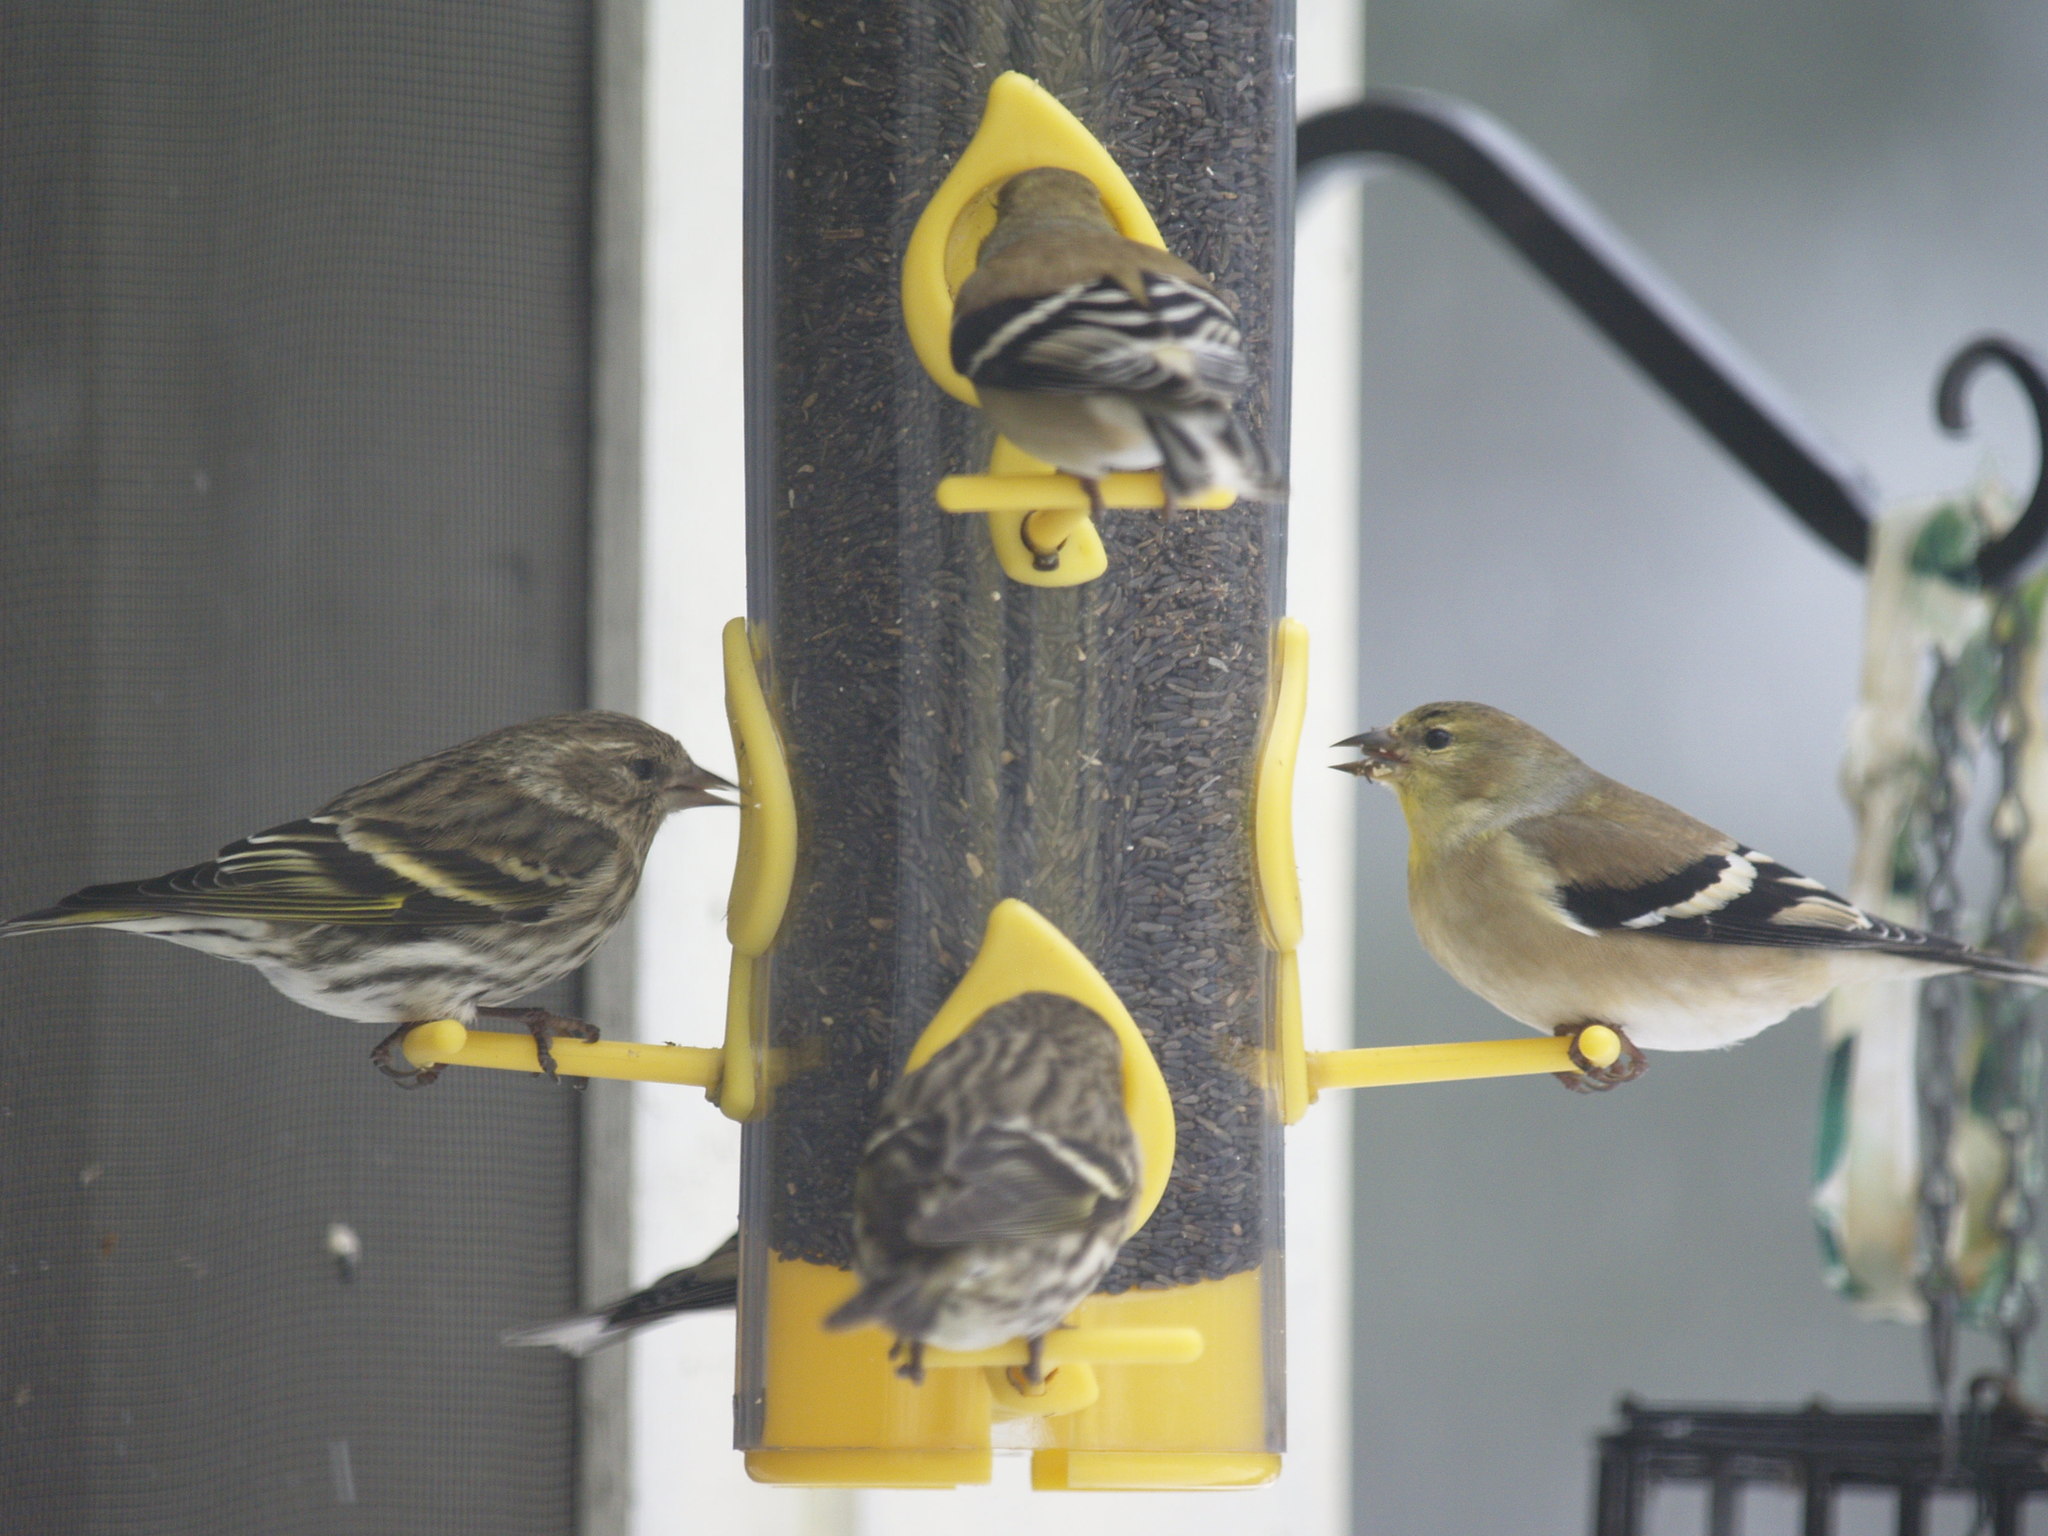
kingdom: Animalia
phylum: Chordata
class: Aves
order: Passeriformes
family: Fringillidae
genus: Spinus
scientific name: Spinus pinus
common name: Pine siskin
